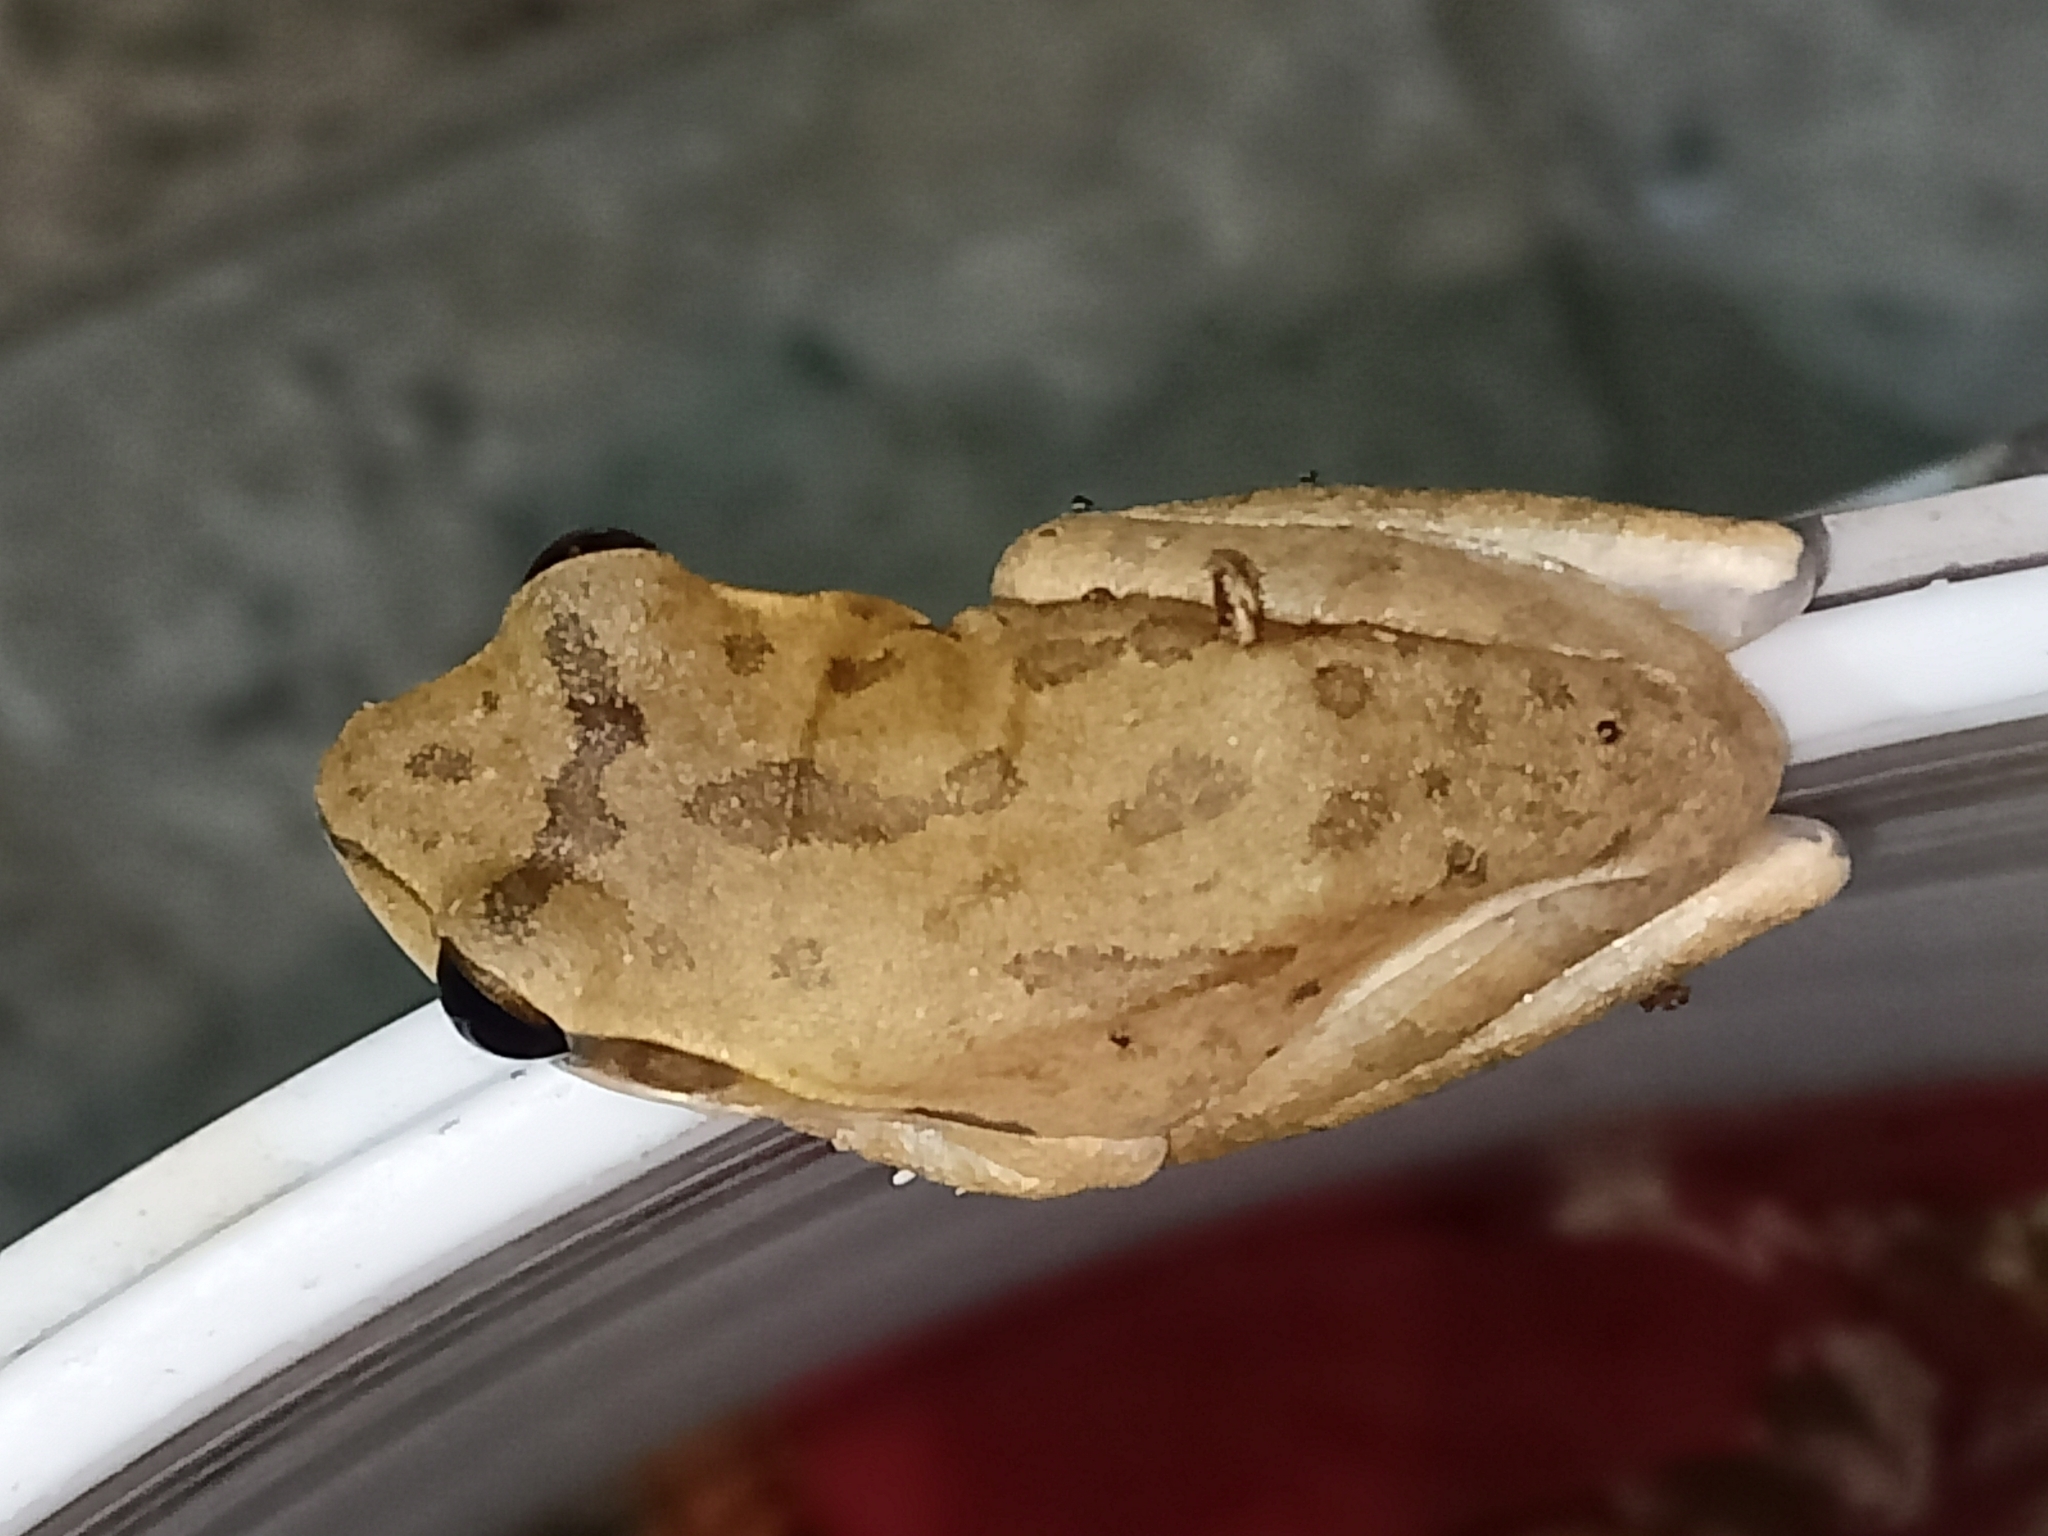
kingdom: Animalia
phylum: Chordata
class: Amphibia
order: Anura
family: Rhacophoridae
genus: Polypedates
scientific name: Polypedates maculatus
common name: Himalayan tree frog
